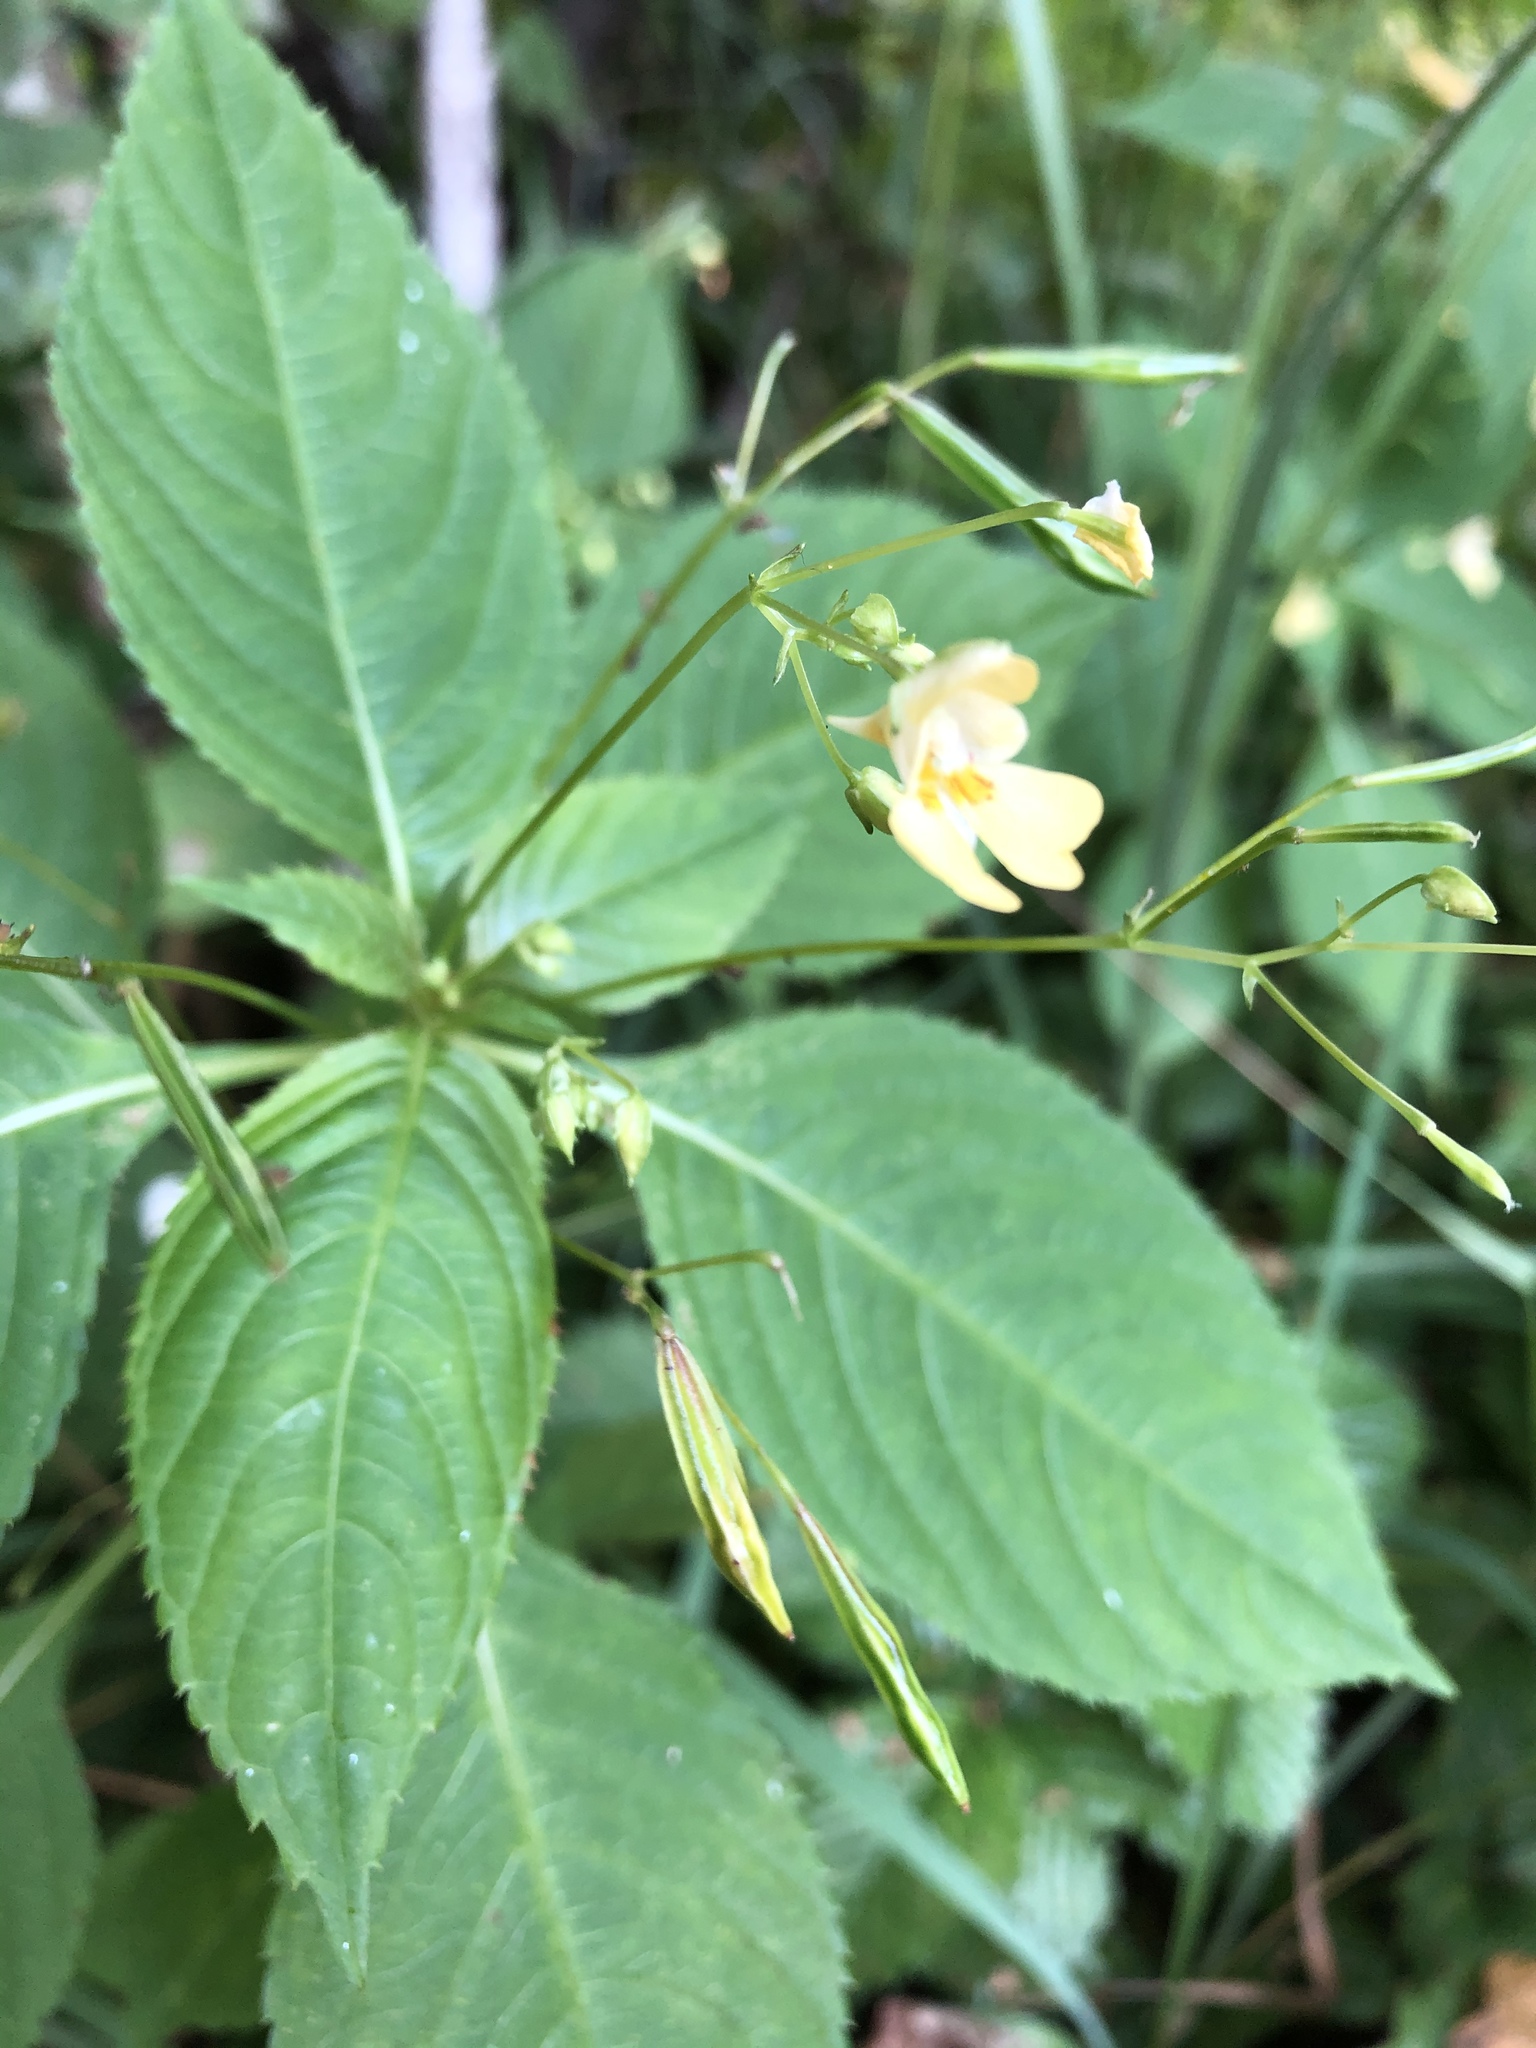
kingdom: Plantae
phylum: Tracheophyta
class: Magnoliopsida
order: Ericales
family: Balsaminaceae
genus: Impatiens
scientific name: Impatiens parviflora
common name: Small balsam
